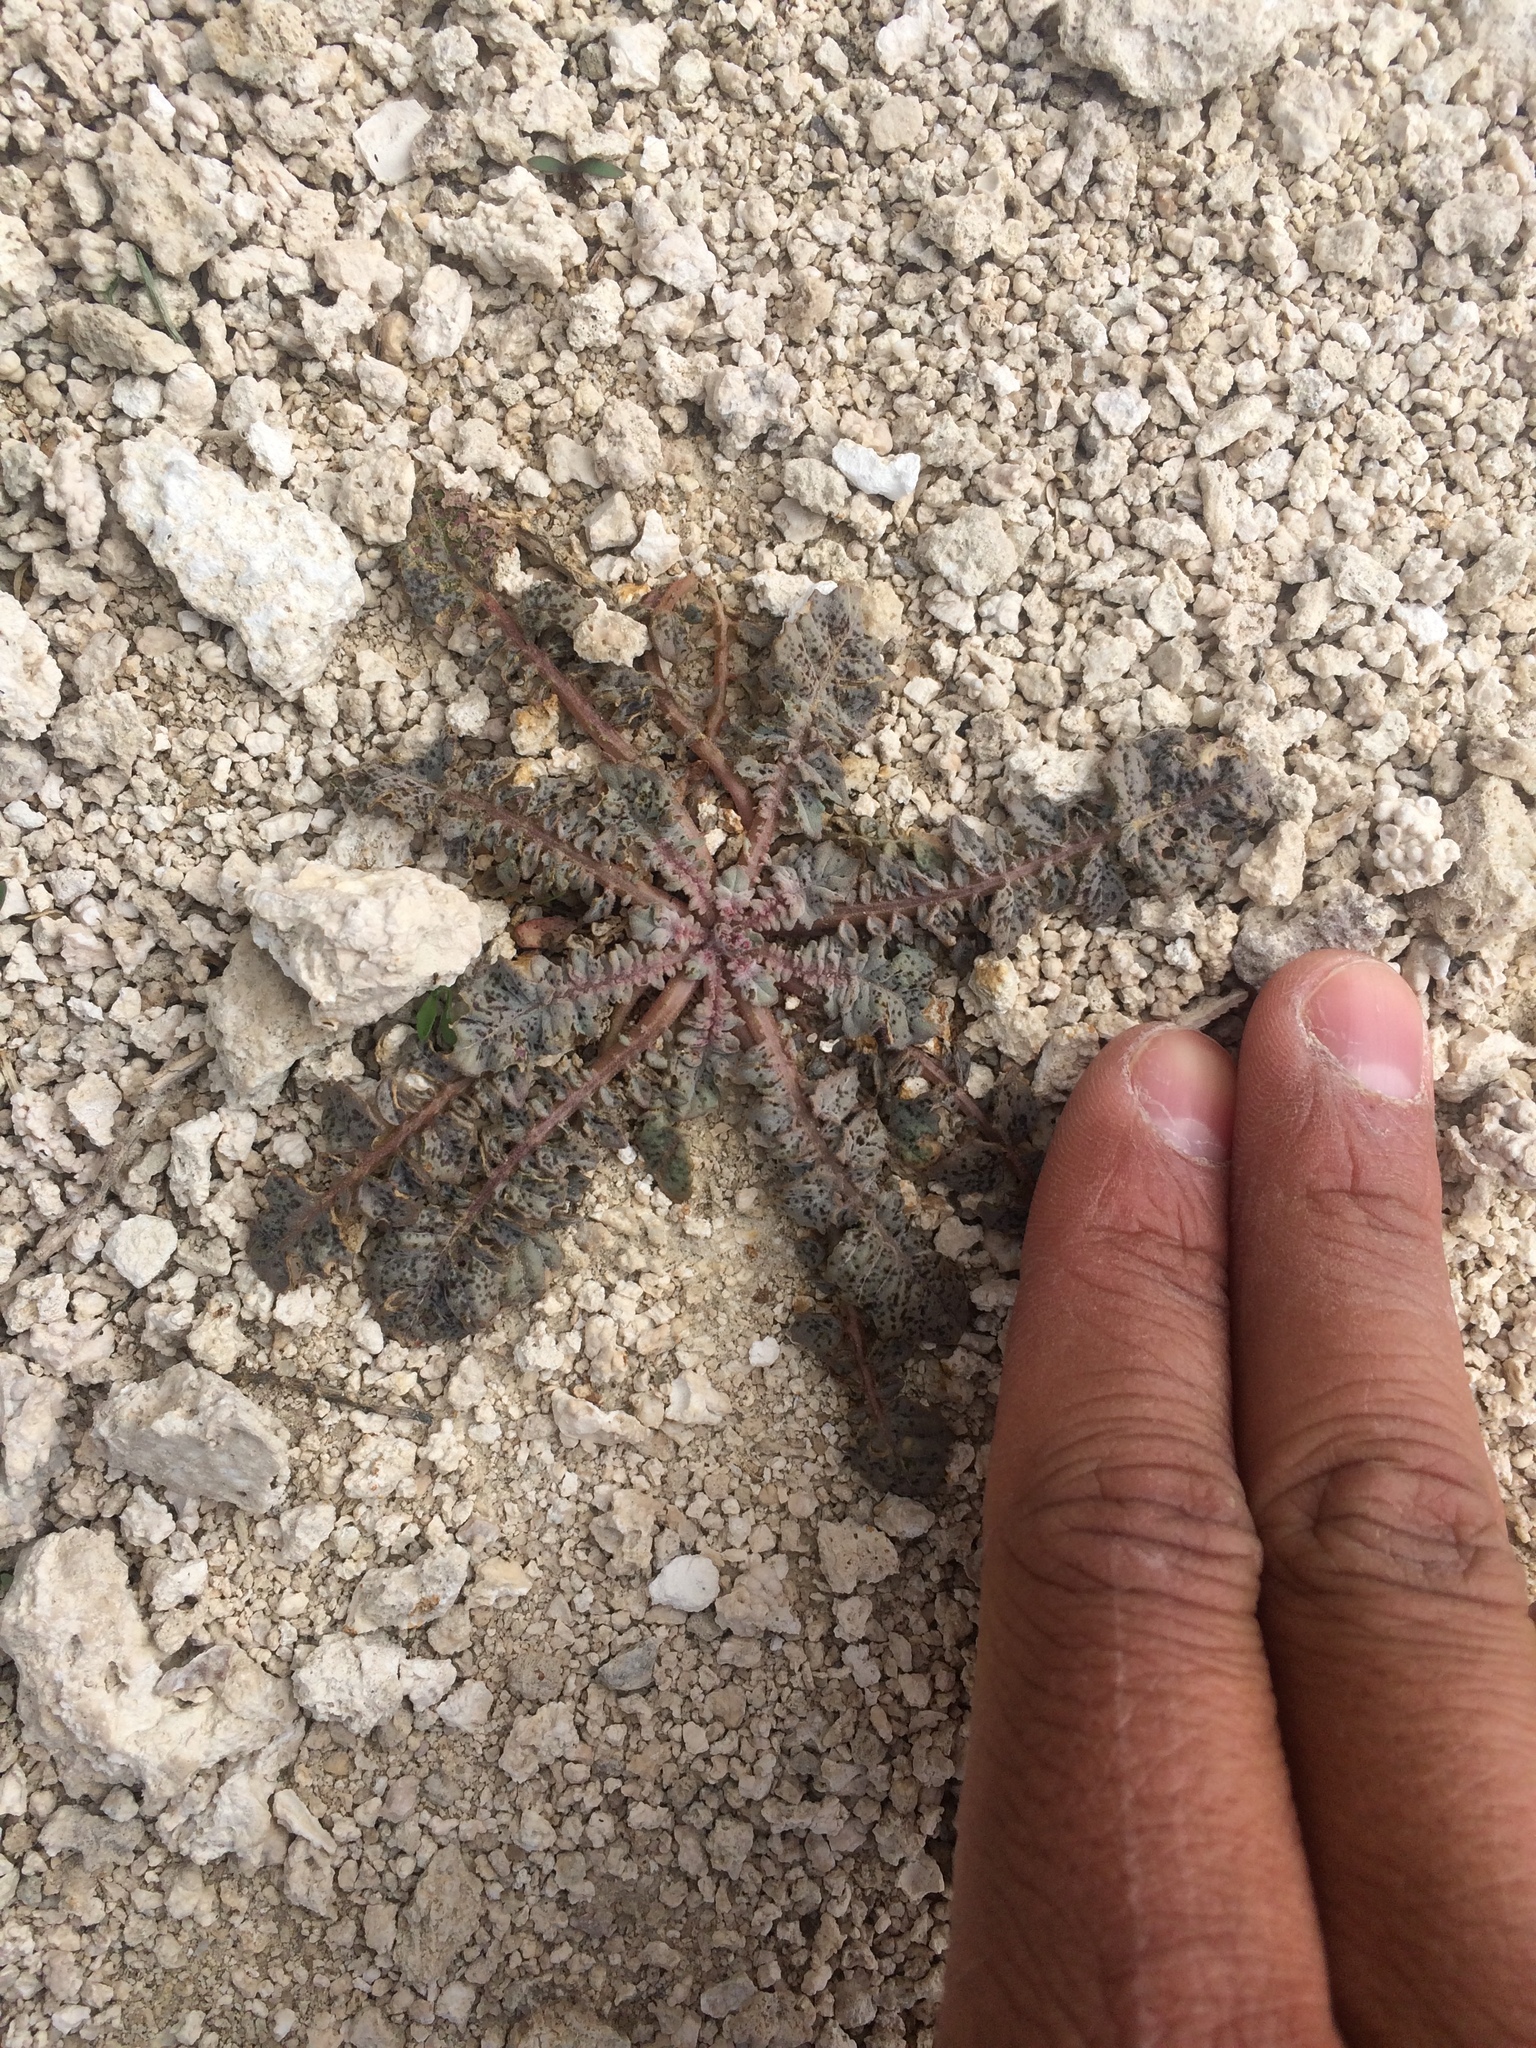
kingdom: Plantae
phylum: Tracheophyta
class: Magnoliopsida
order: Myrtales
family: Onagraceae
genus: Chylismia
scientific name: Chylismia walkeri
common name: Walker's suncup
